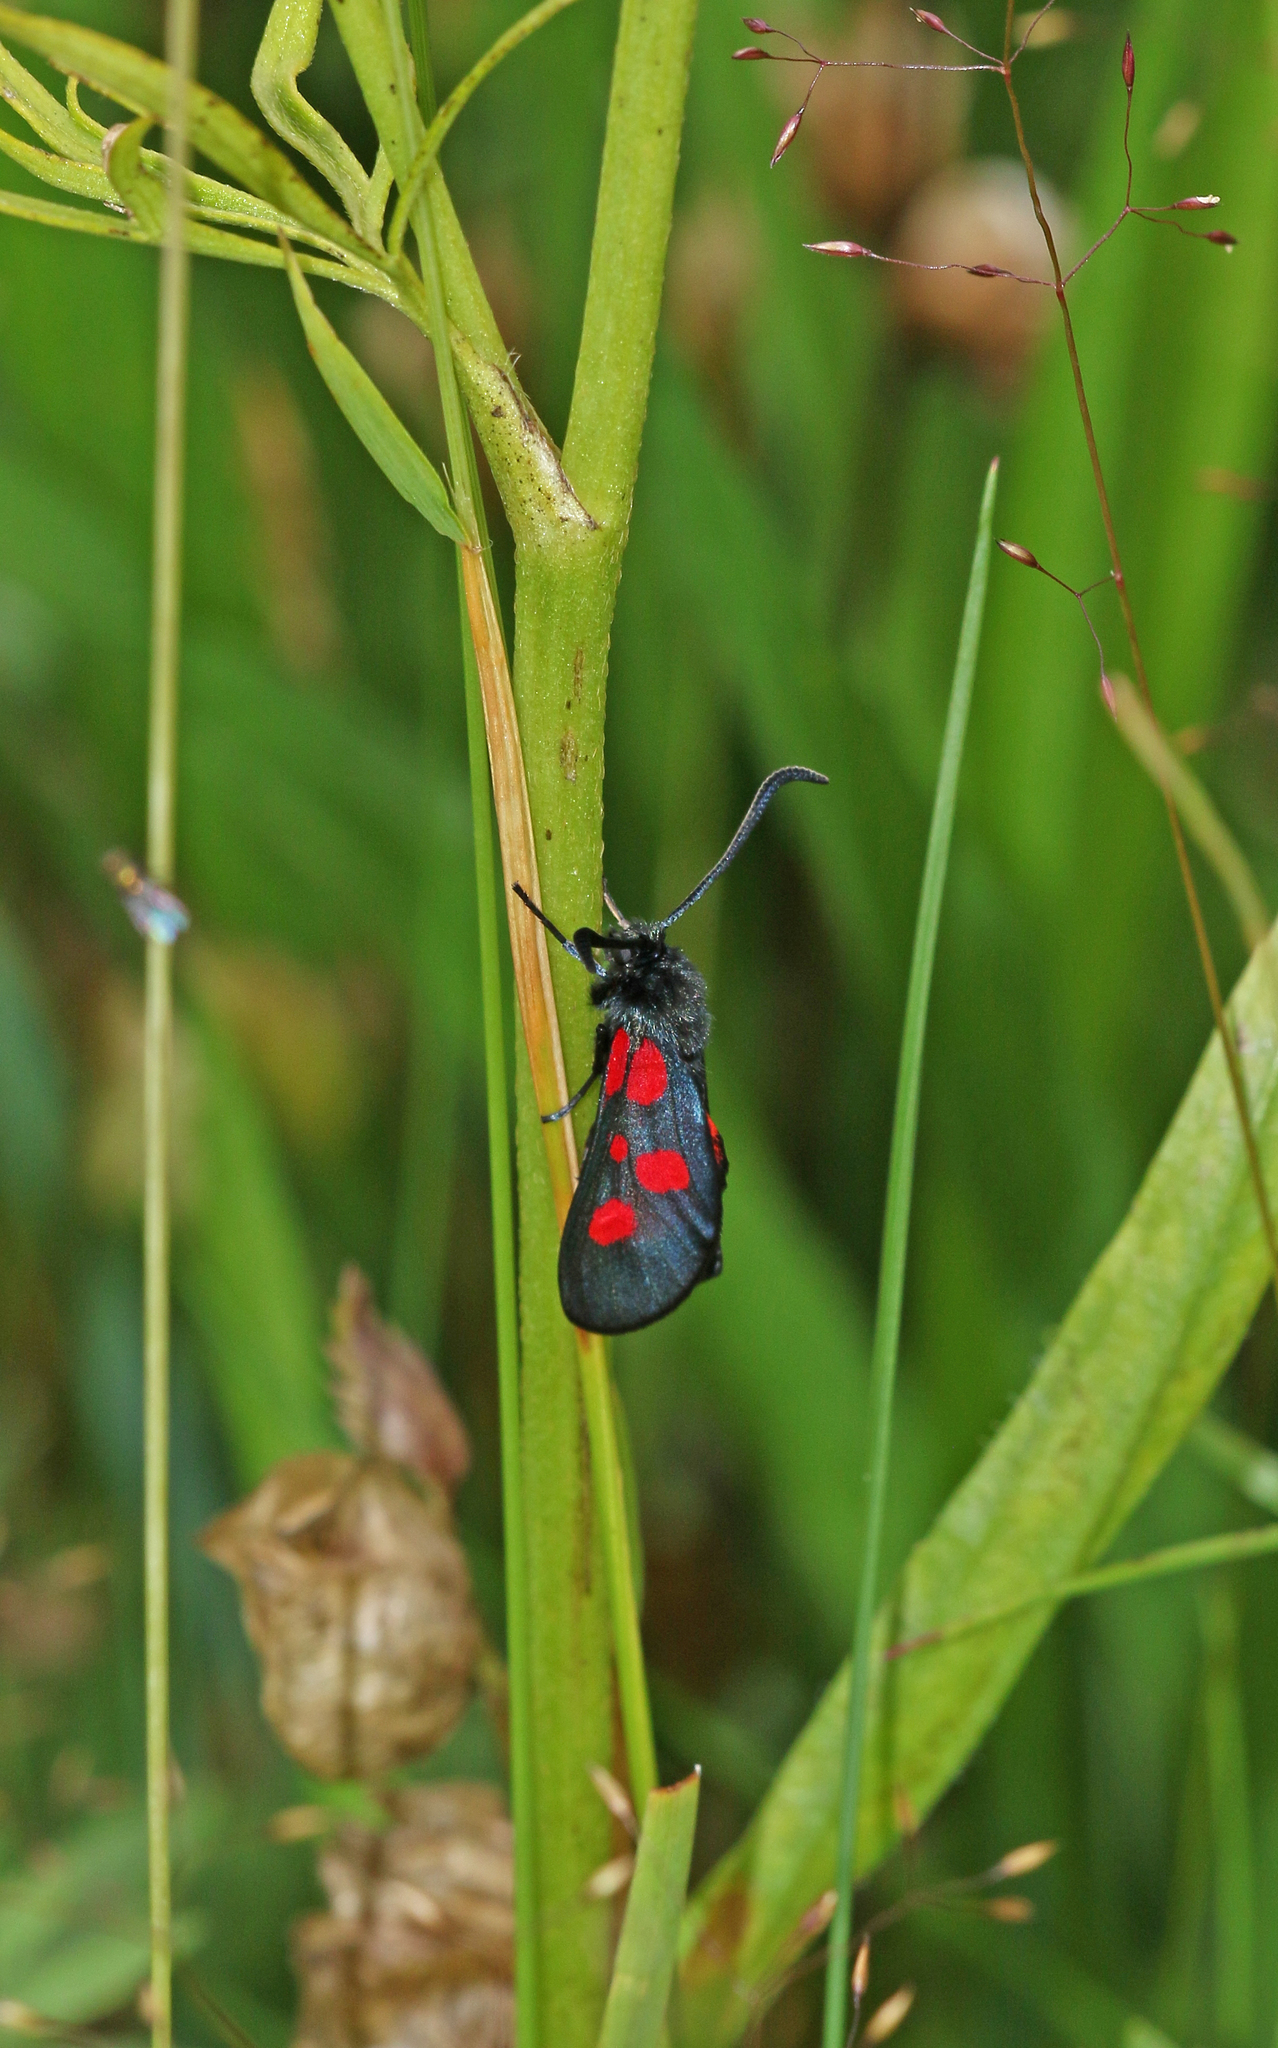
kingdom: Animalia
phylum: Arthropoda
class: Insecta
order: Lepidoptera
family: Zygaenidae
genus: Zygaena
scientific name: Zygaena viciae
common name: New forest burnet
